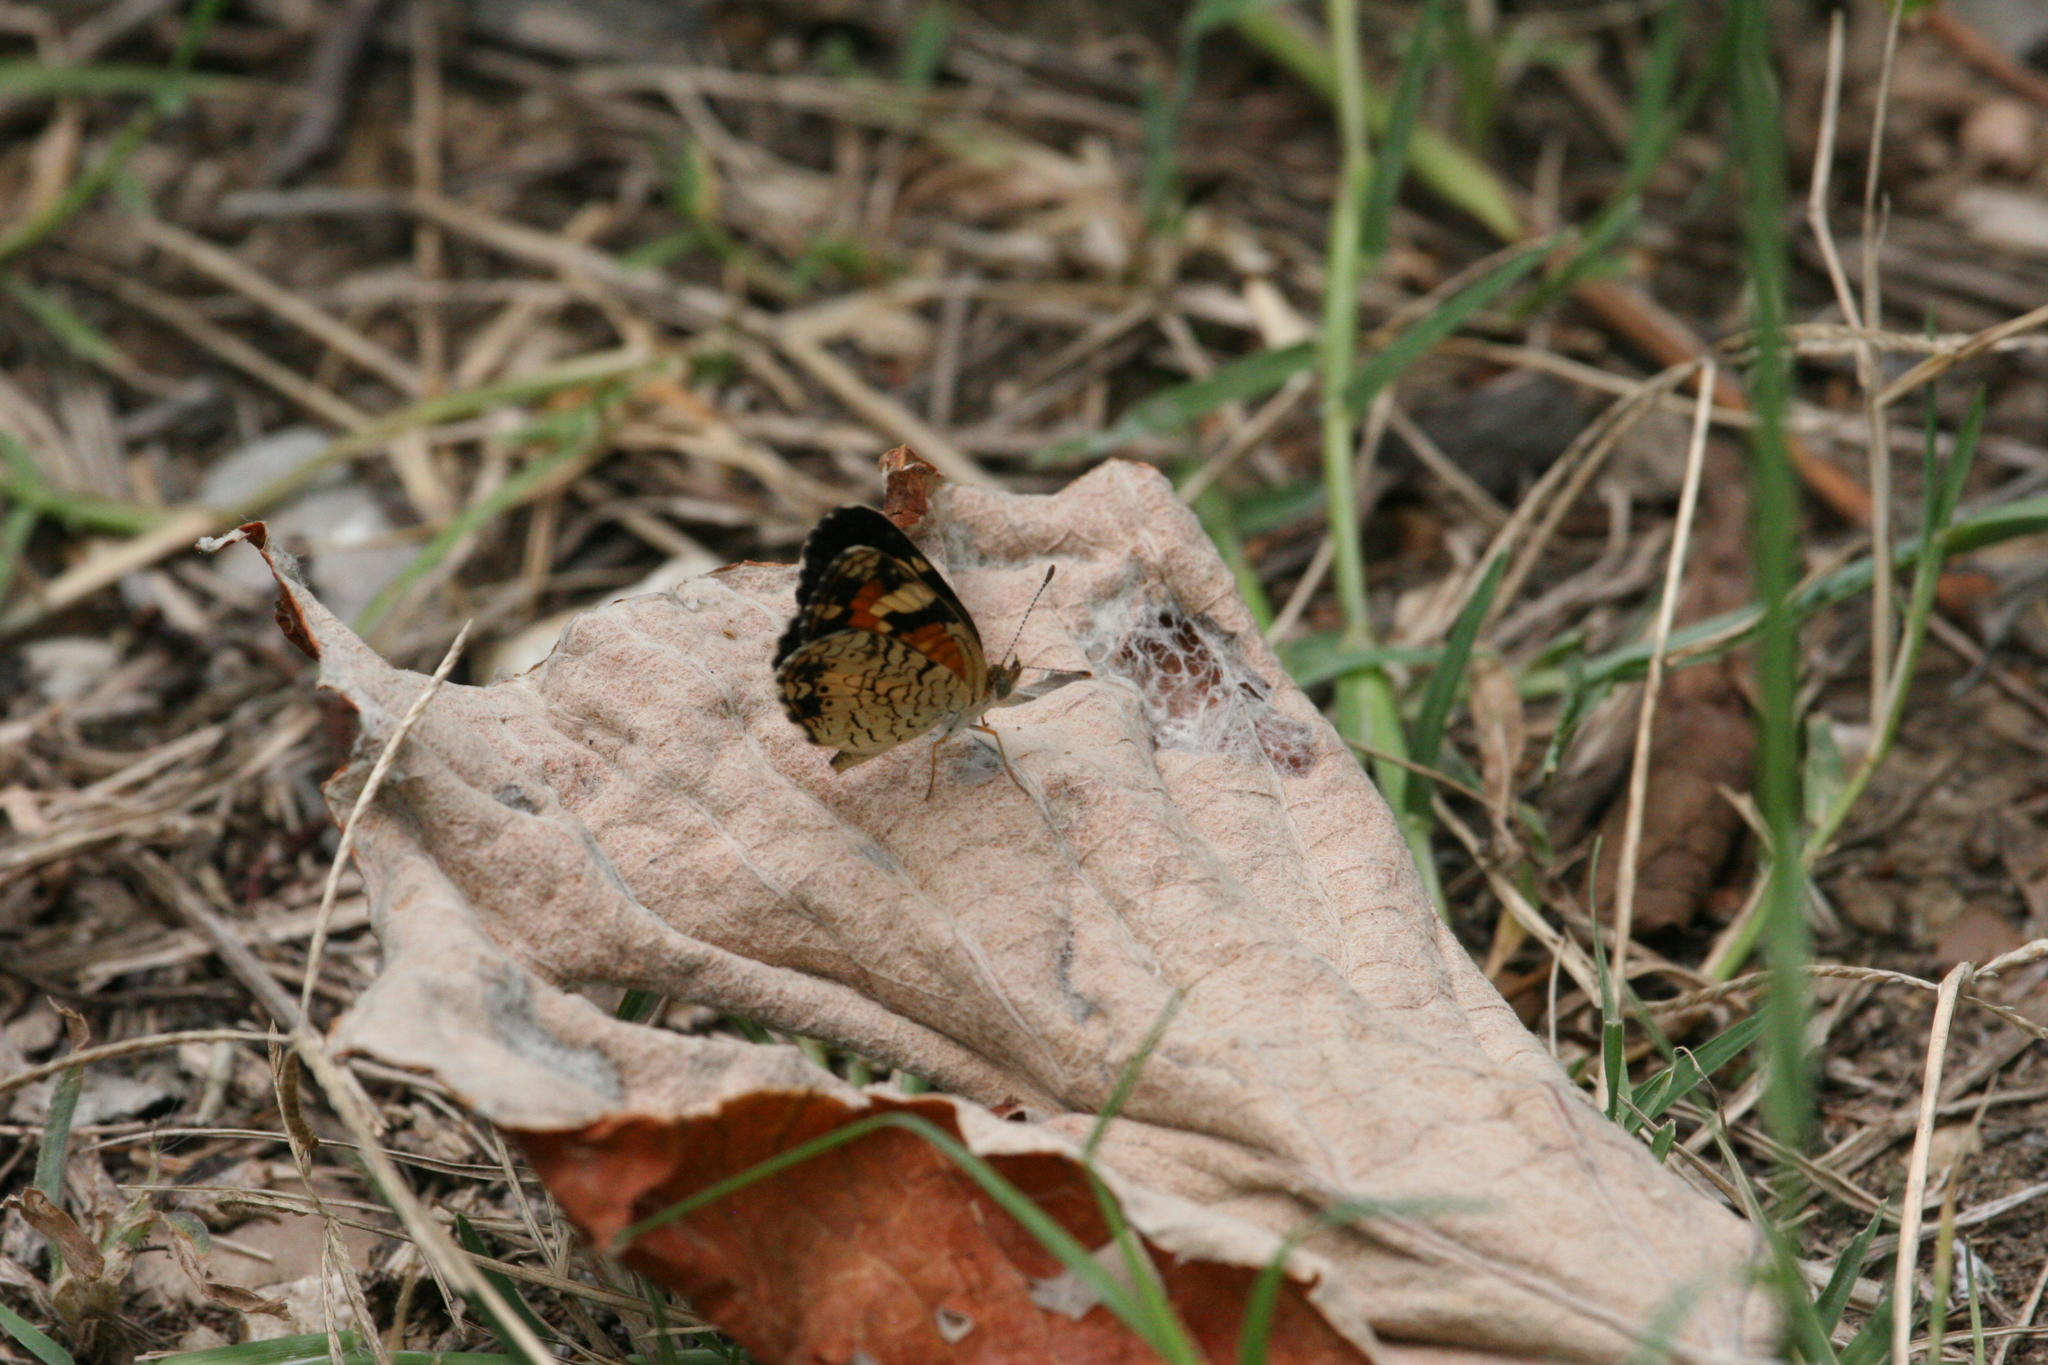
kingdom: Animalia
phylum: Arthropoda
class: Insecta
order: Lepidoptera
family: Nymphalidae
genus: Phyciodes
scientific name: Phyciodes phaon
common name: Phaon crescent
